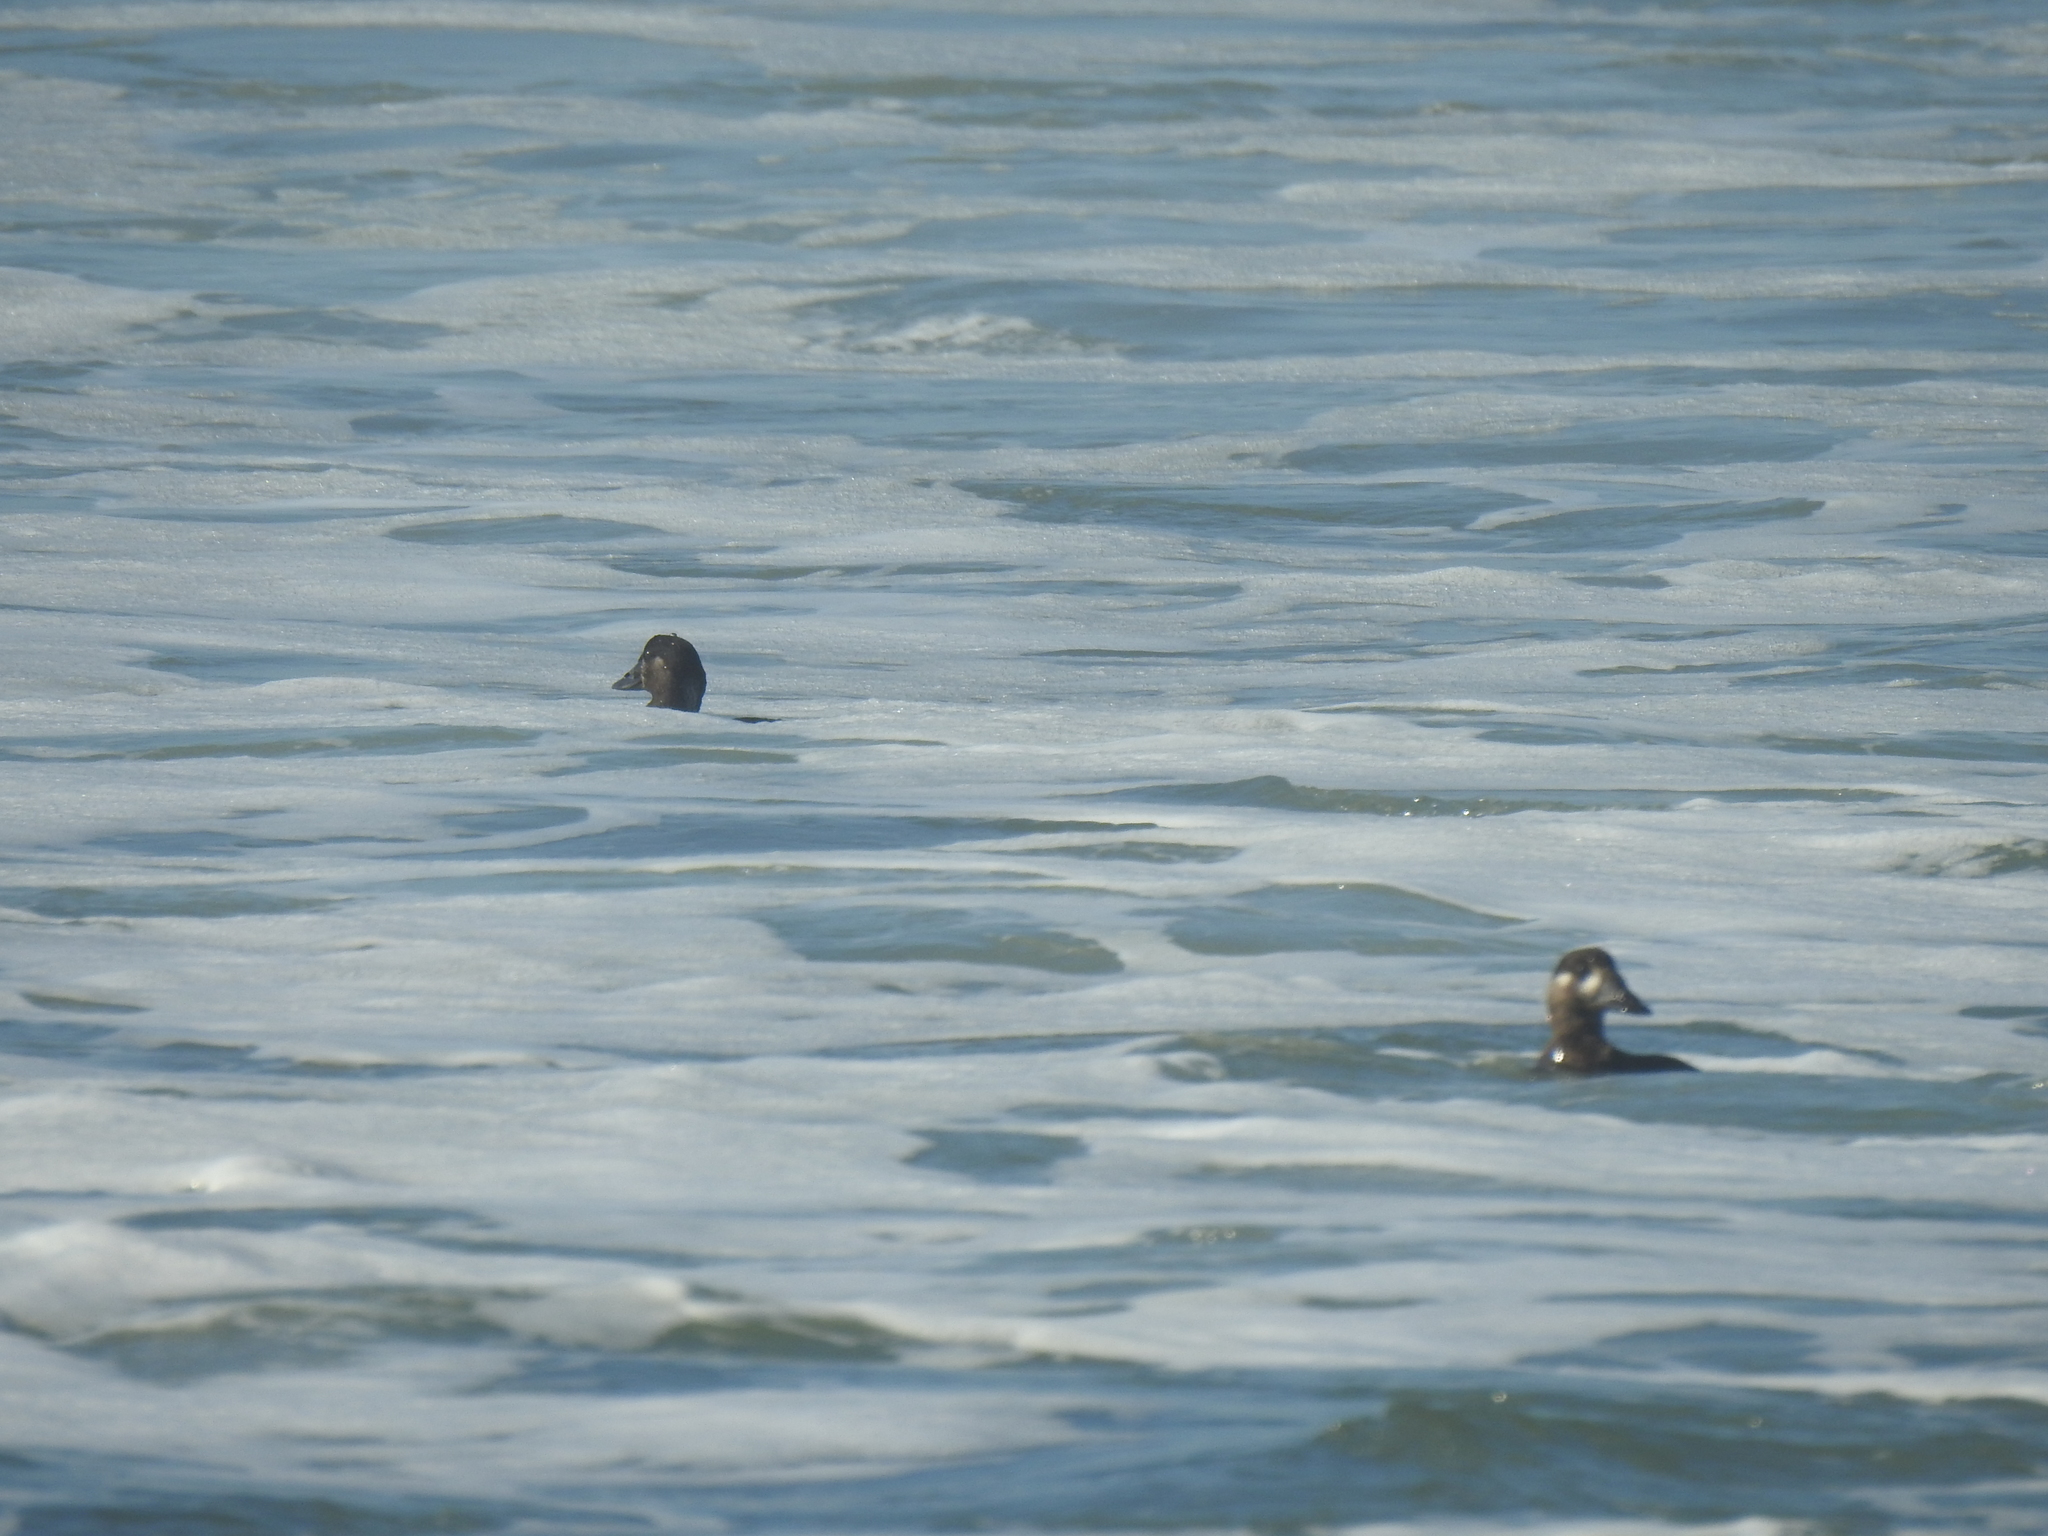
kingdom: Animalia
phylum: Chordata
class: Aves
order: Anseriformes
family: Anatidae
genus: Melanitta
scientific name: Melanitta perspicillata
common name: Surf scoter
